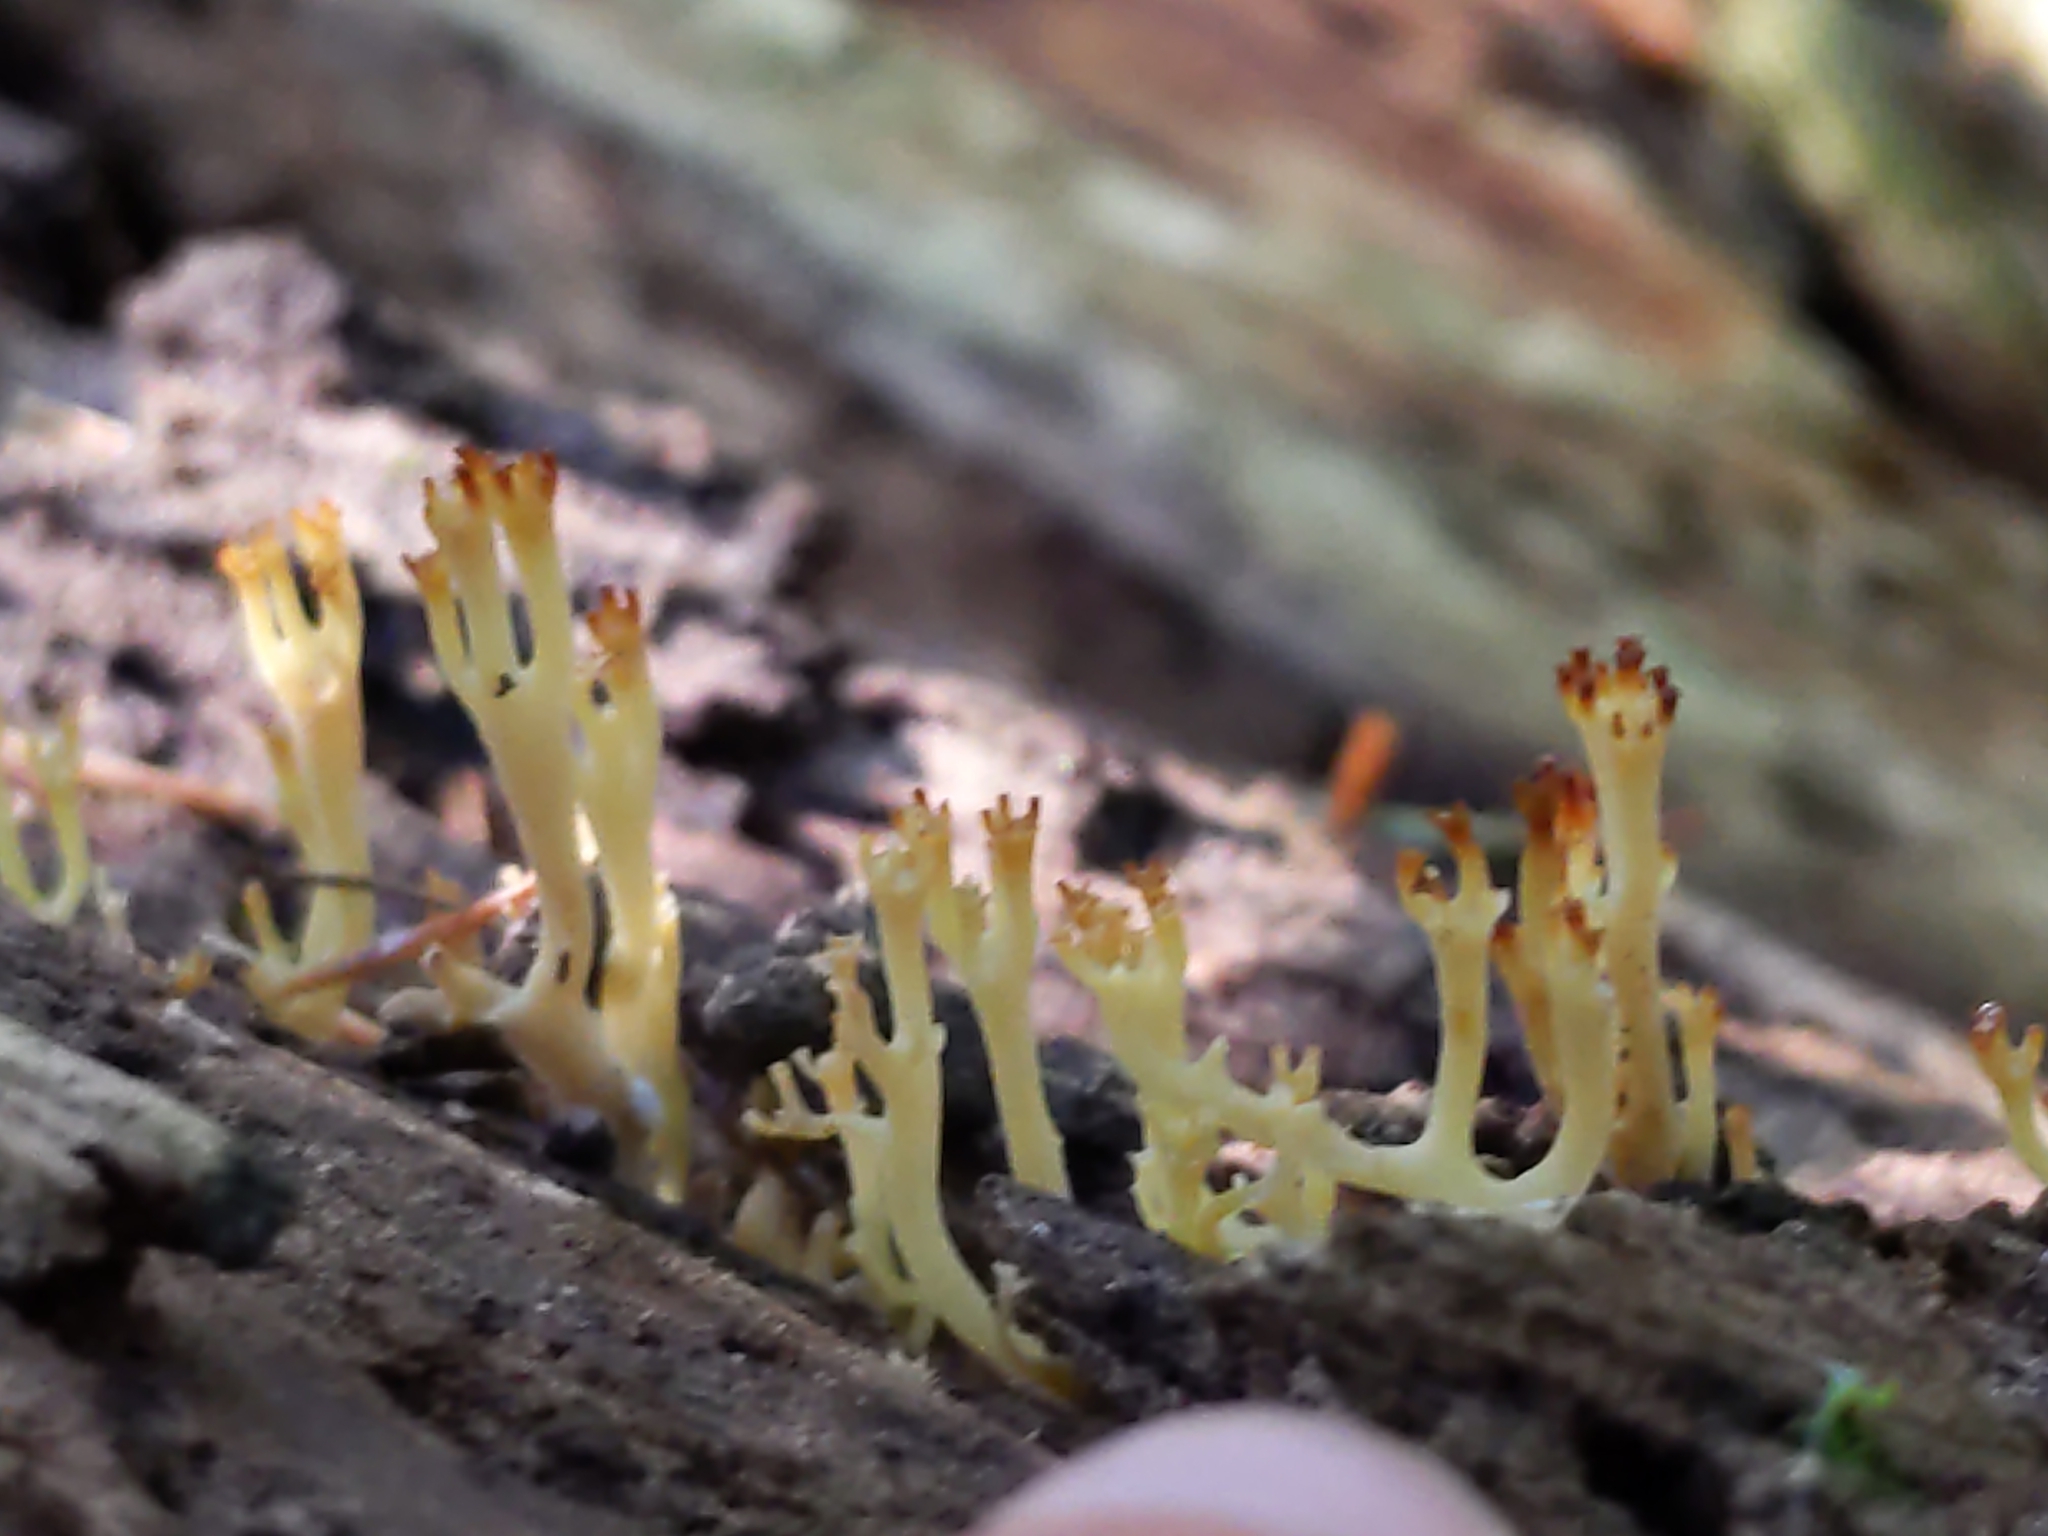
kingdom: Fungi
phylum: Basidiomycota
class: Agaricomycetes
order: Russulales
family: Auriscalpiaceae
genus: Artomyces
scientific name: Artomyces pyxidatus
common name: Crown-tipped coral fungus
